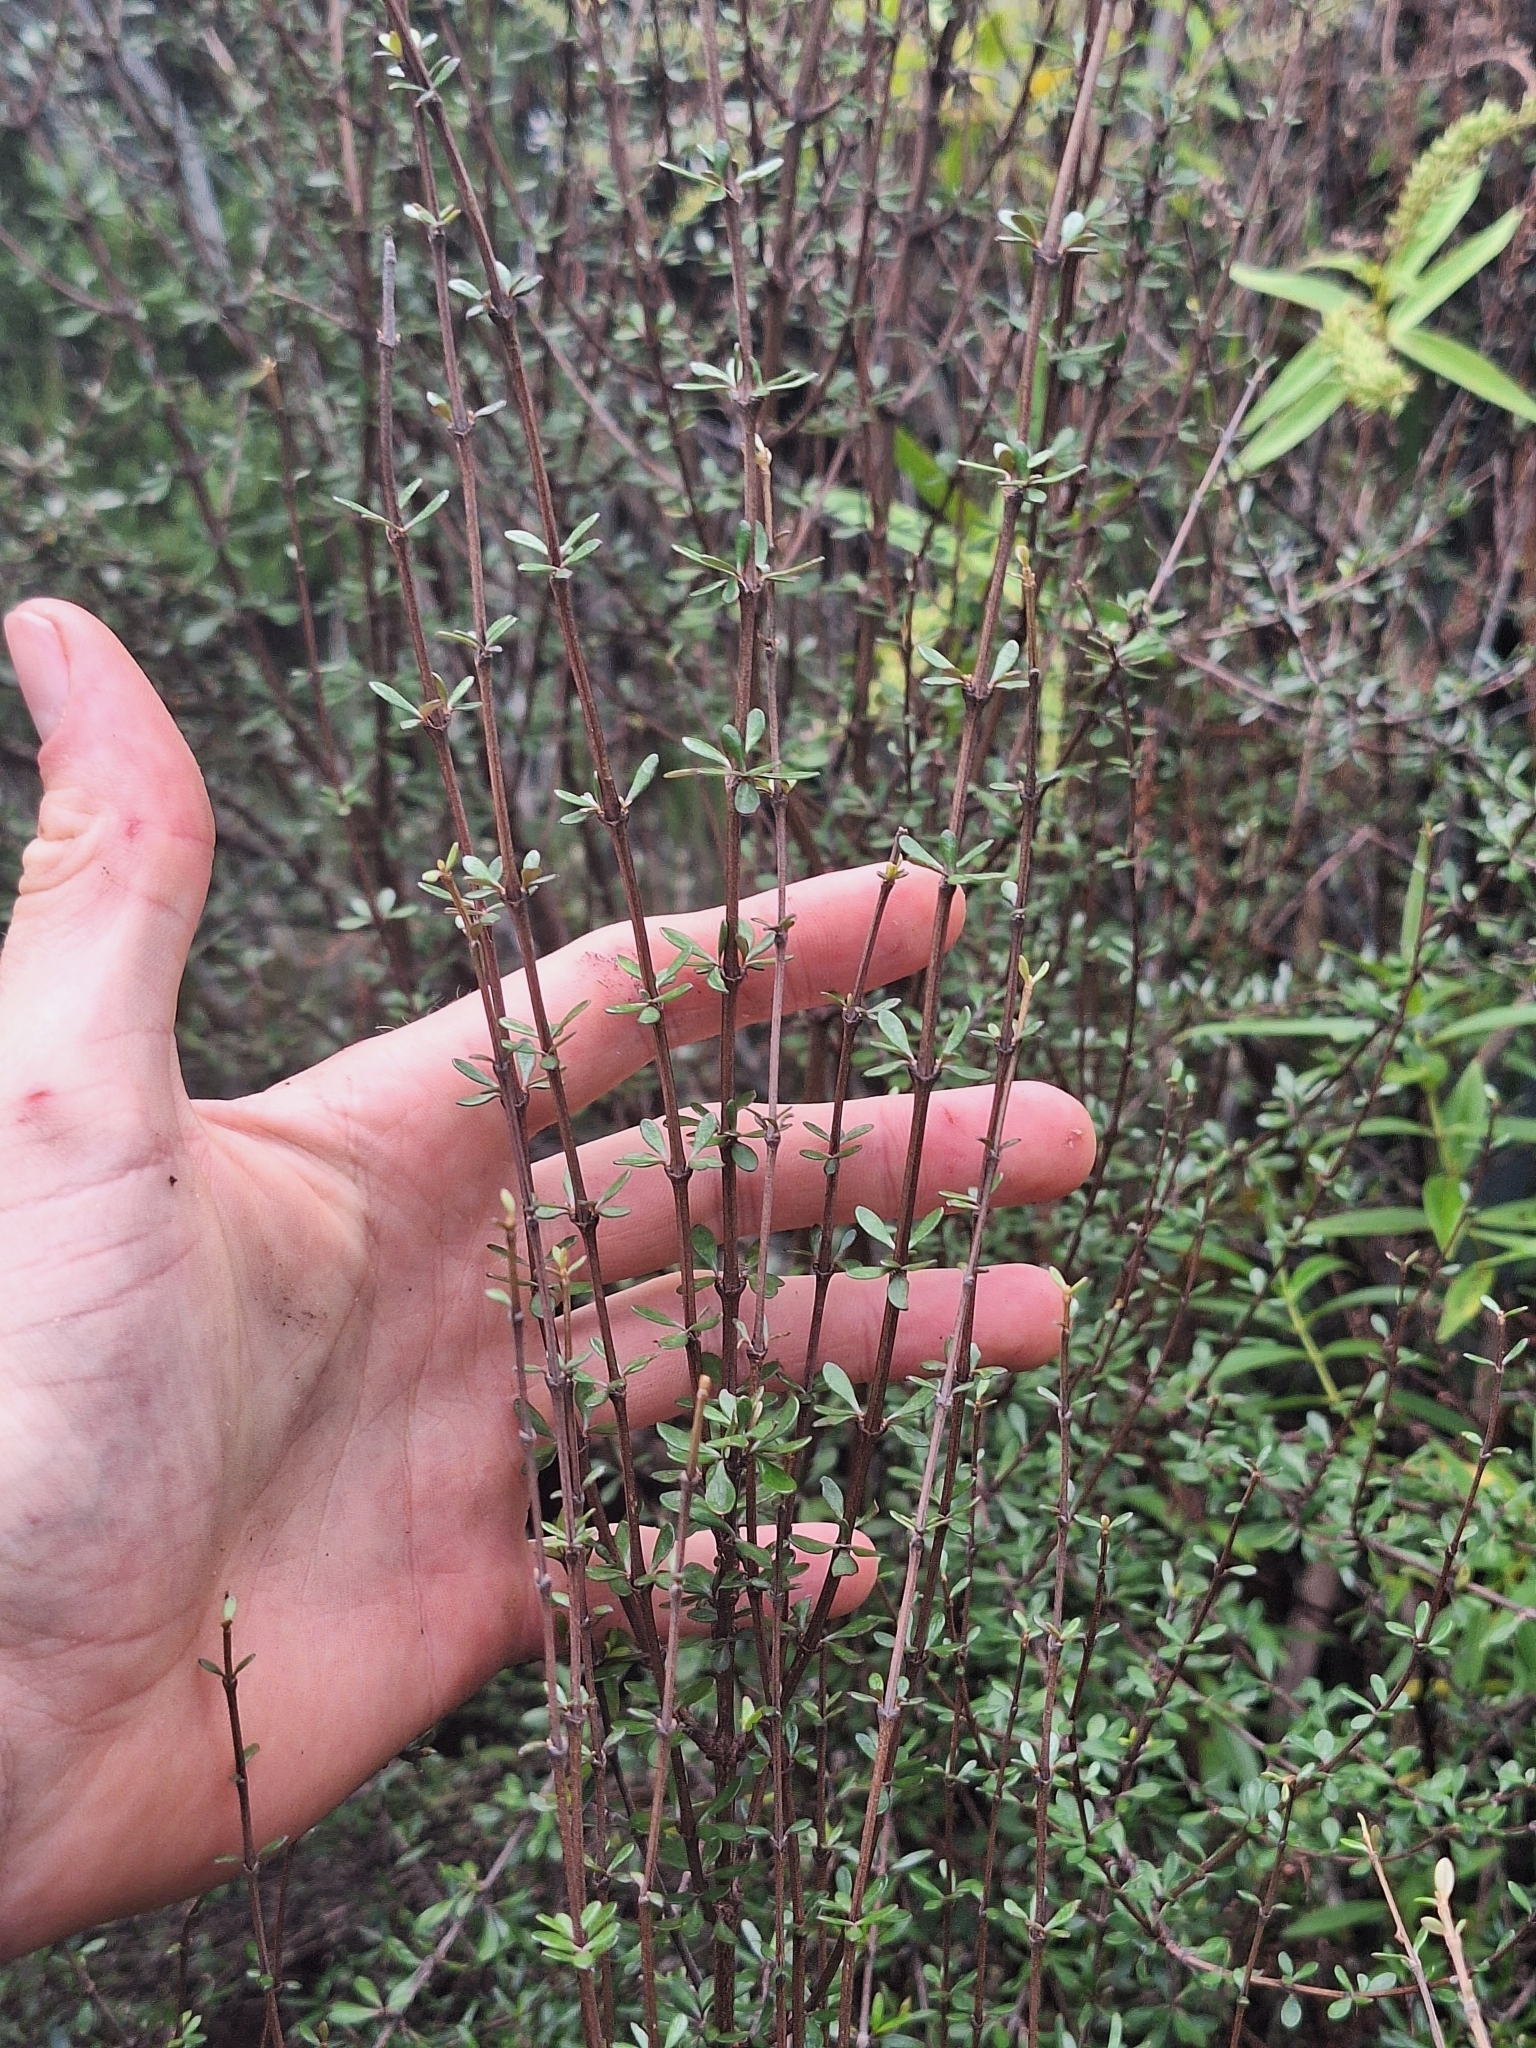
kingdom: Plantae
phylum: Tracheophyta
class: Magnoliopsida
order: Asterales
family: Asteraceae
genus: Olearia
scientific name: Olearia virgata
